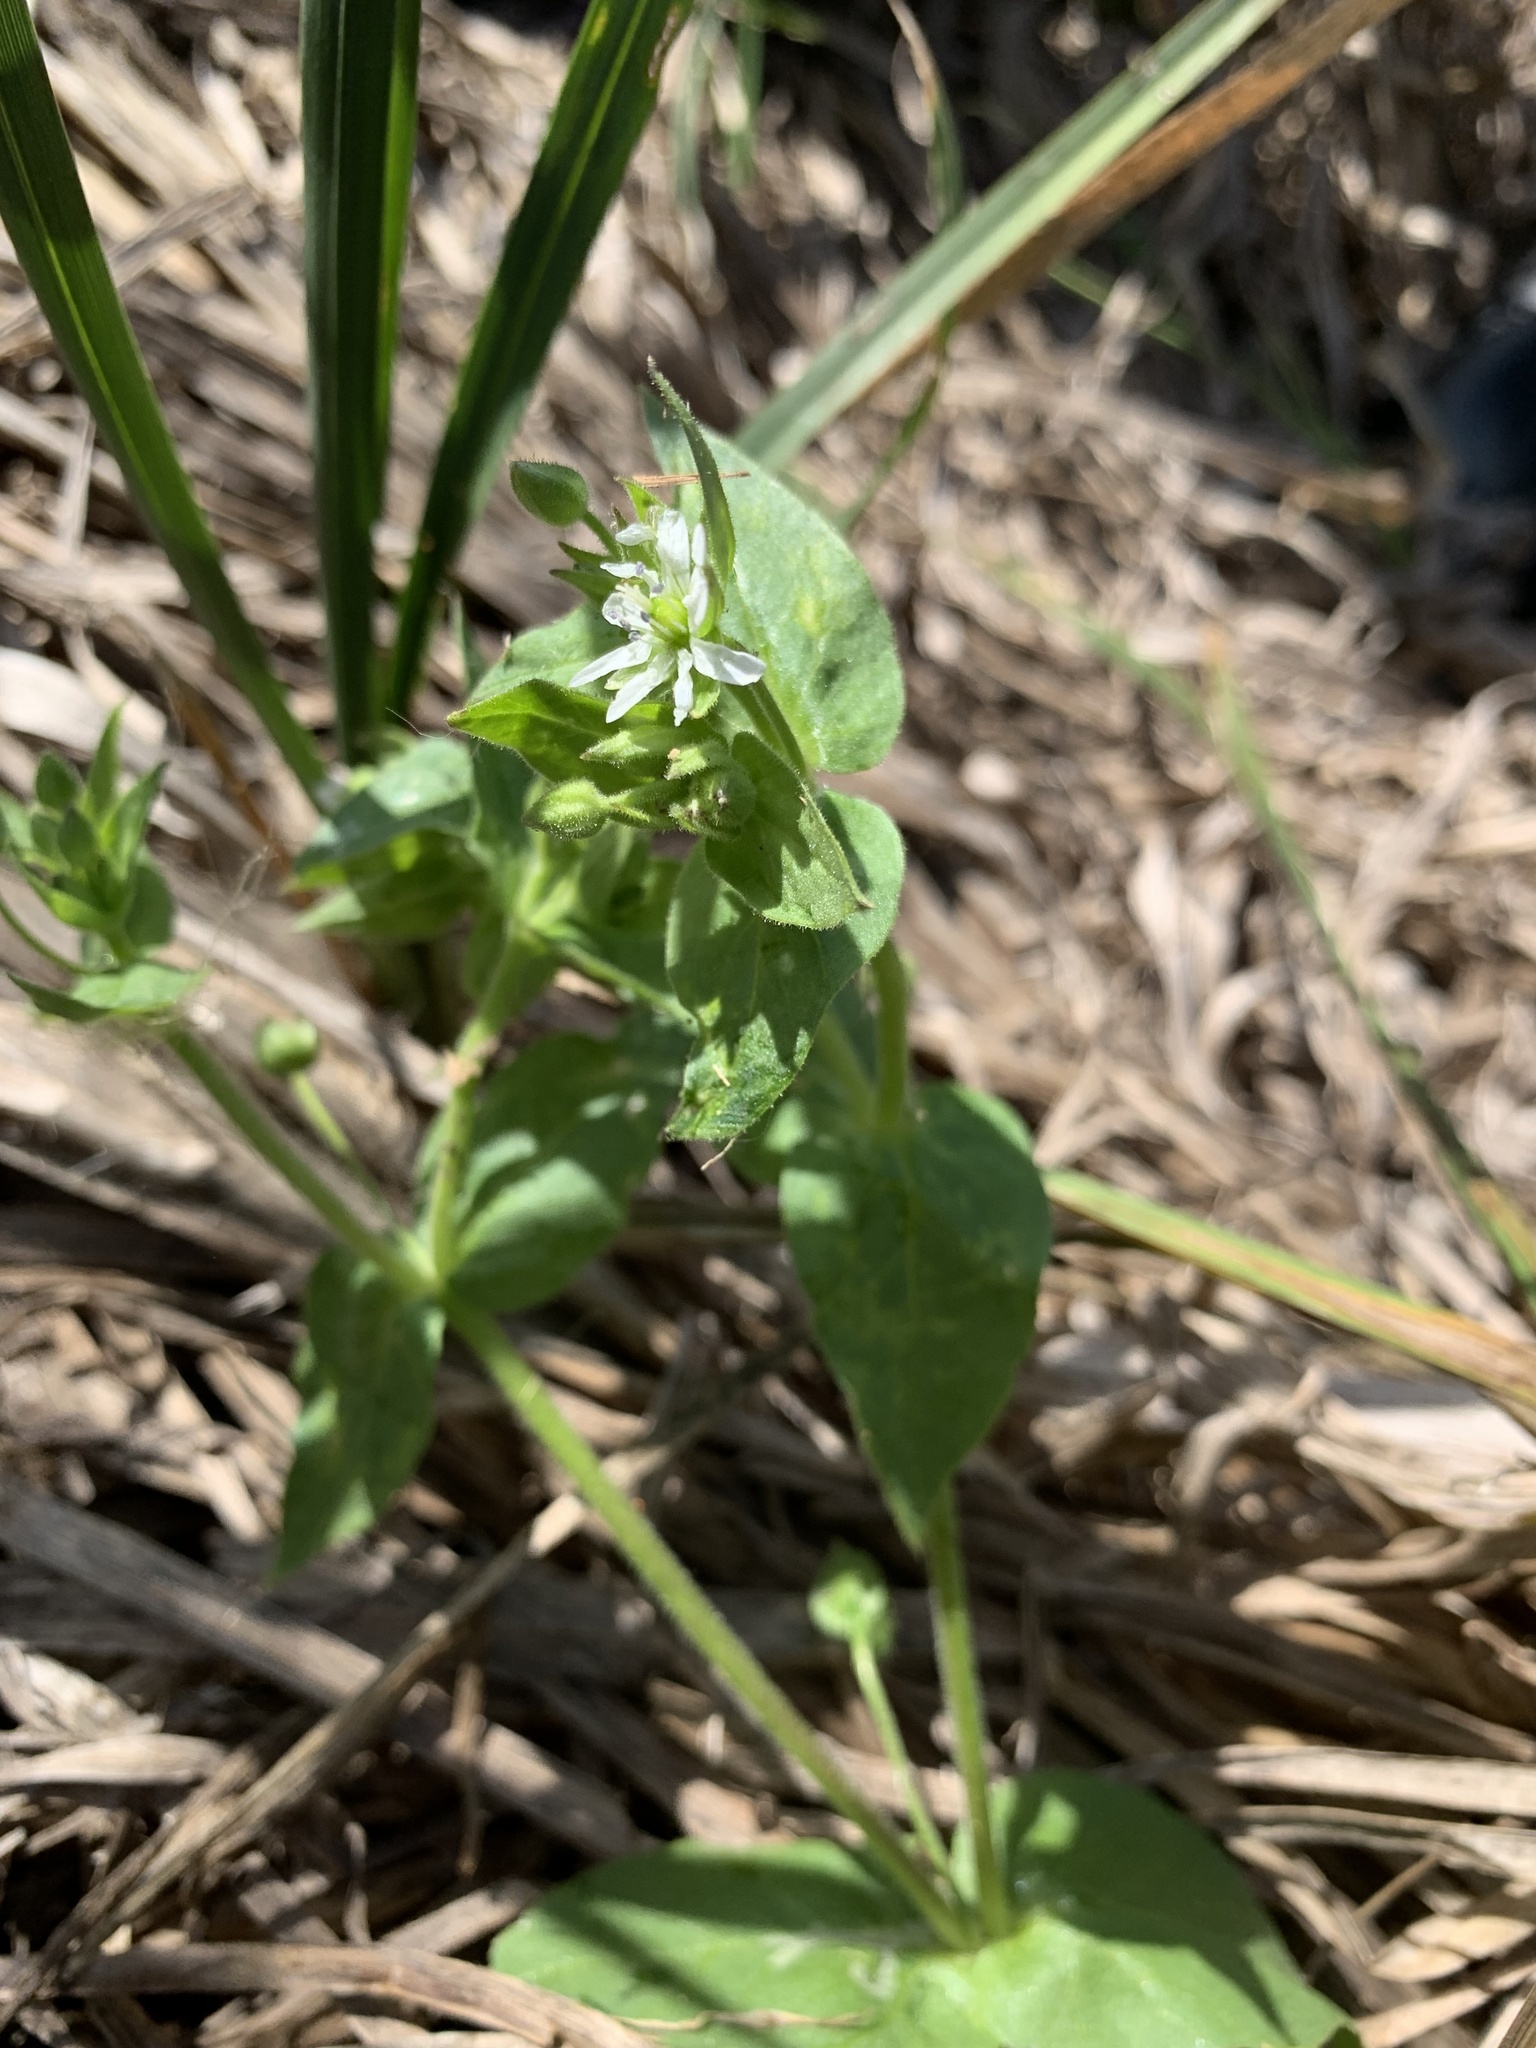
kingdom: Plantae
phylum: Tracheophyta
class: Magnoliopsida
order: Caryophyllales
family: Caryophyllaceae
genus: Stellaria
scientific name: Stellaria aquatica
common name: Water chickweed
